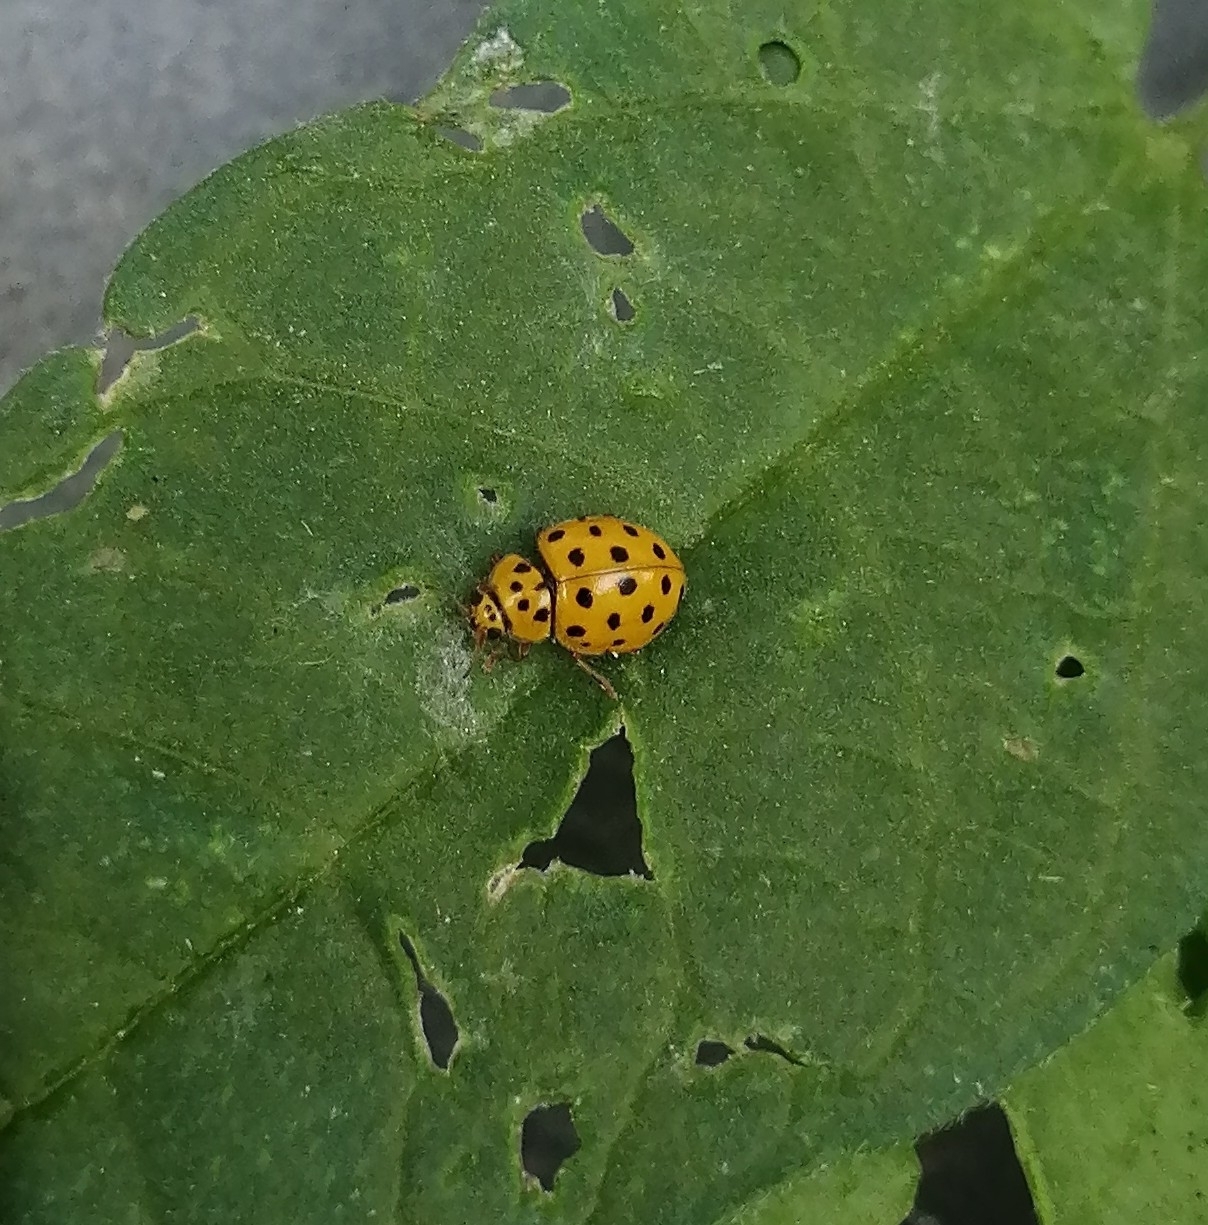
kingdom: Animalia
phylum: Arthropoda
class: Insecta
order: Coleoptera
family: Coccinellidae
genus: Psyllobora
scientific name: Psyllobora vigintiduopunctata
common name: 22-spot ladybird
